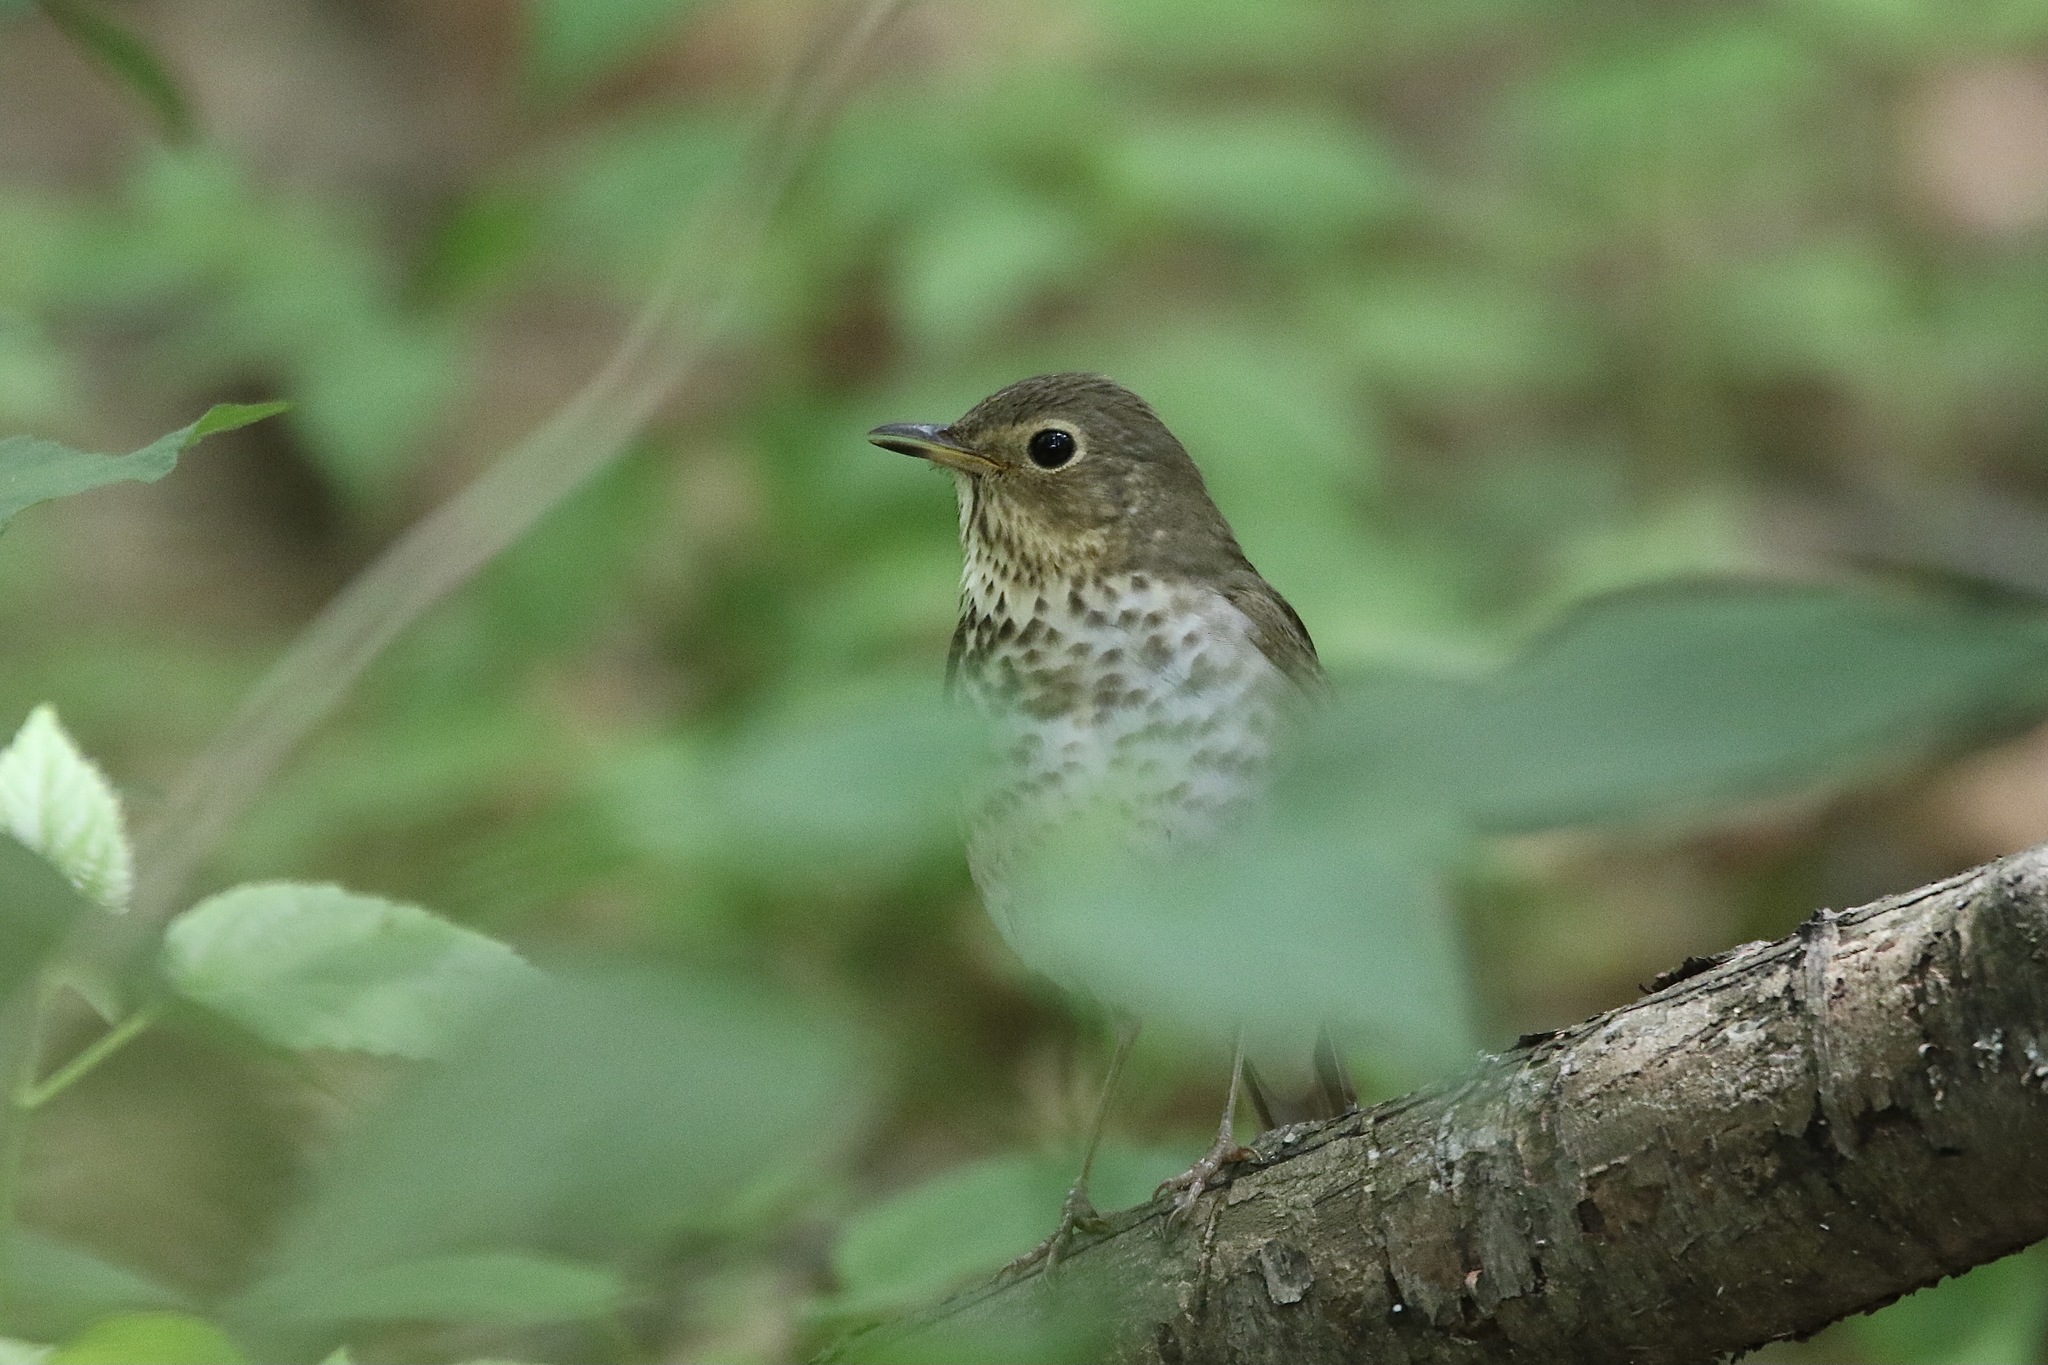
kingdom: Animalia
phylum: Chordata
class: Aves
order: Passeriformes
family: Turdidae
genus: Catharus
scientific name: Catharus ustulatus
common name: Swainson's thrush
